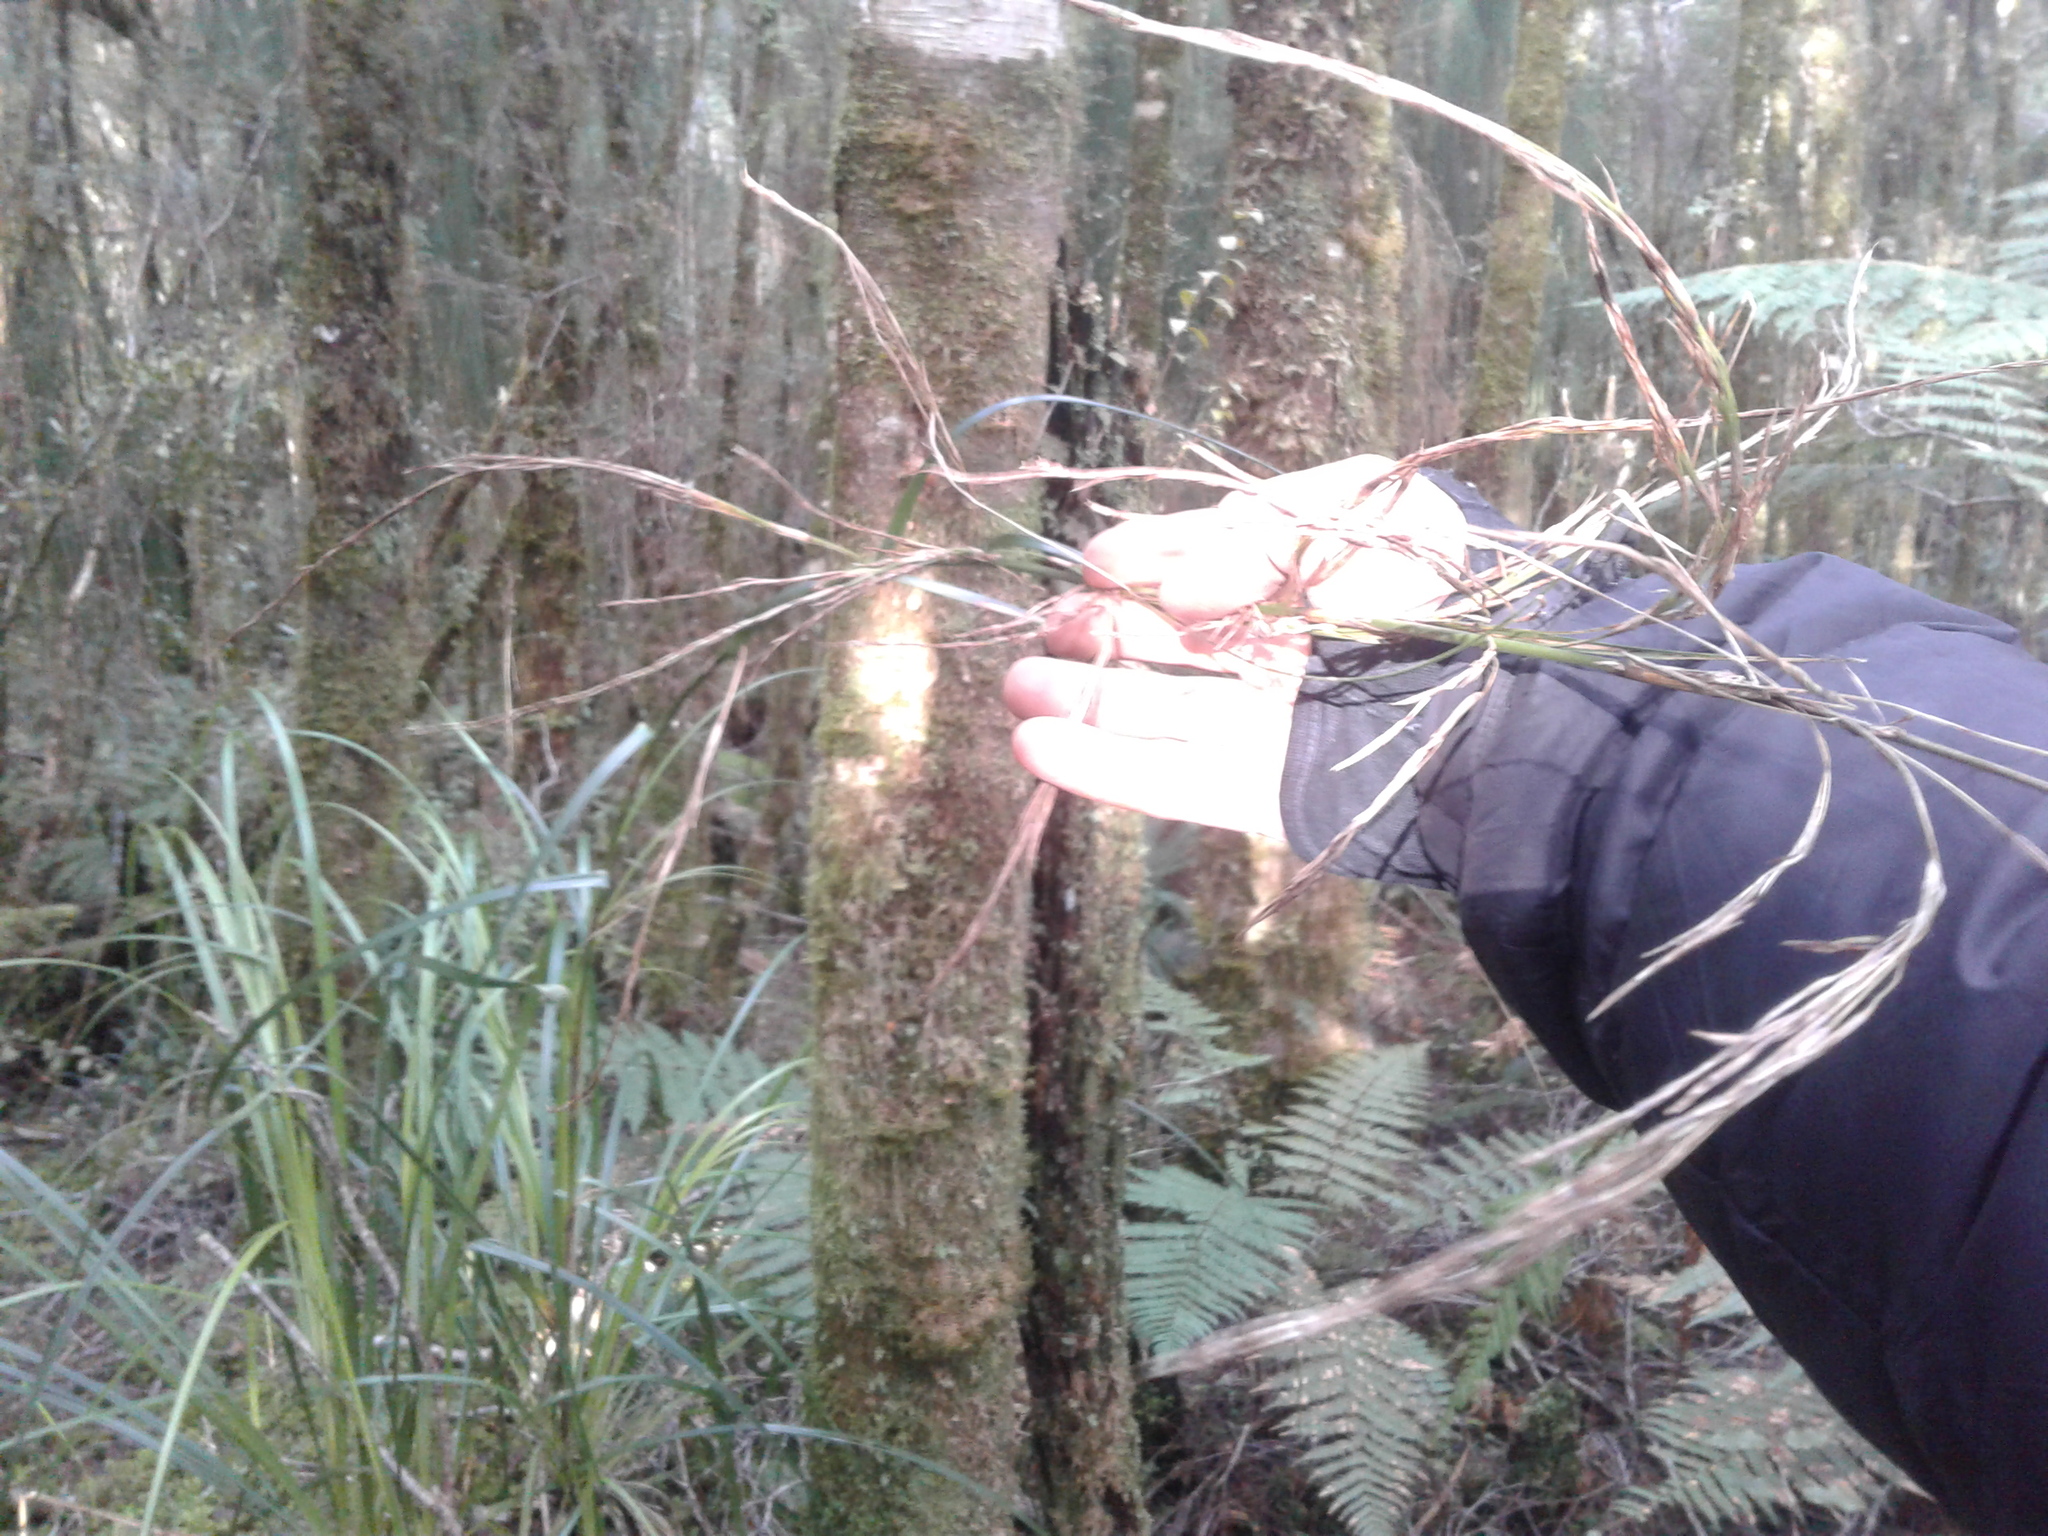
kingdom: Plantae
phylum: Tracheophyta
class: Liliopsida
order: Poales
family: Cyperaceae
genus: Gahnia
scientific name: Gahnia xanthocarpa
